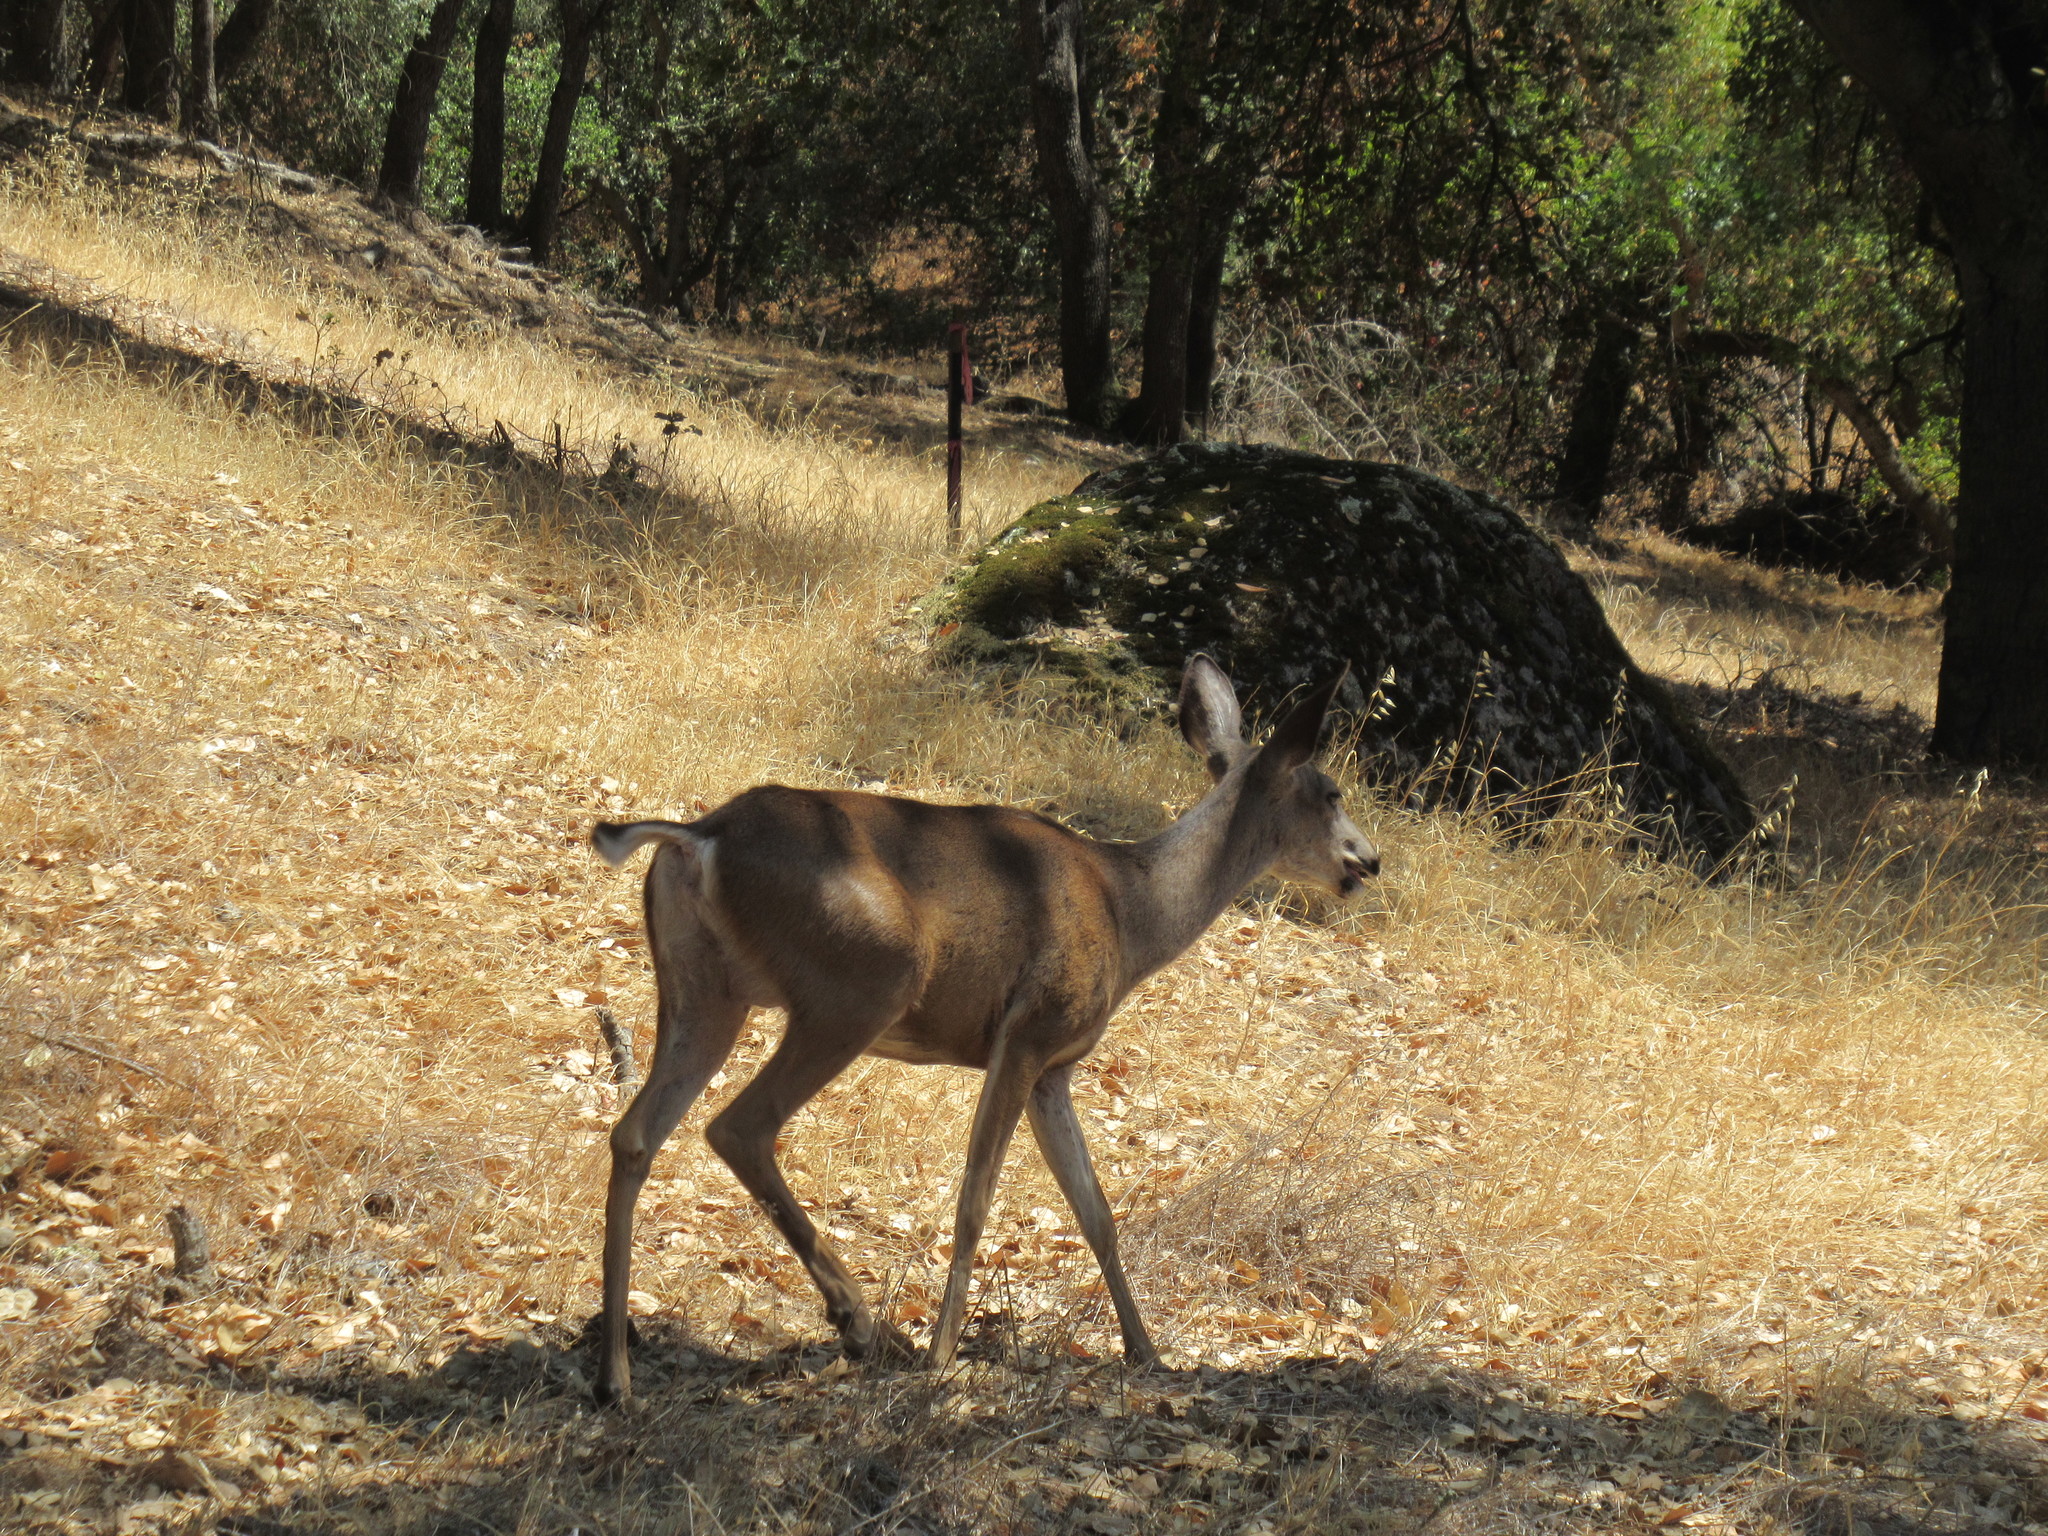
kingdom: Animalia
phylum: Chordata
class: Mammalia
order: Artiodactyla
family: Cervidae
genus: Odocoileus
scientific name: Odocoileus hemionus
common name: Mule deer
